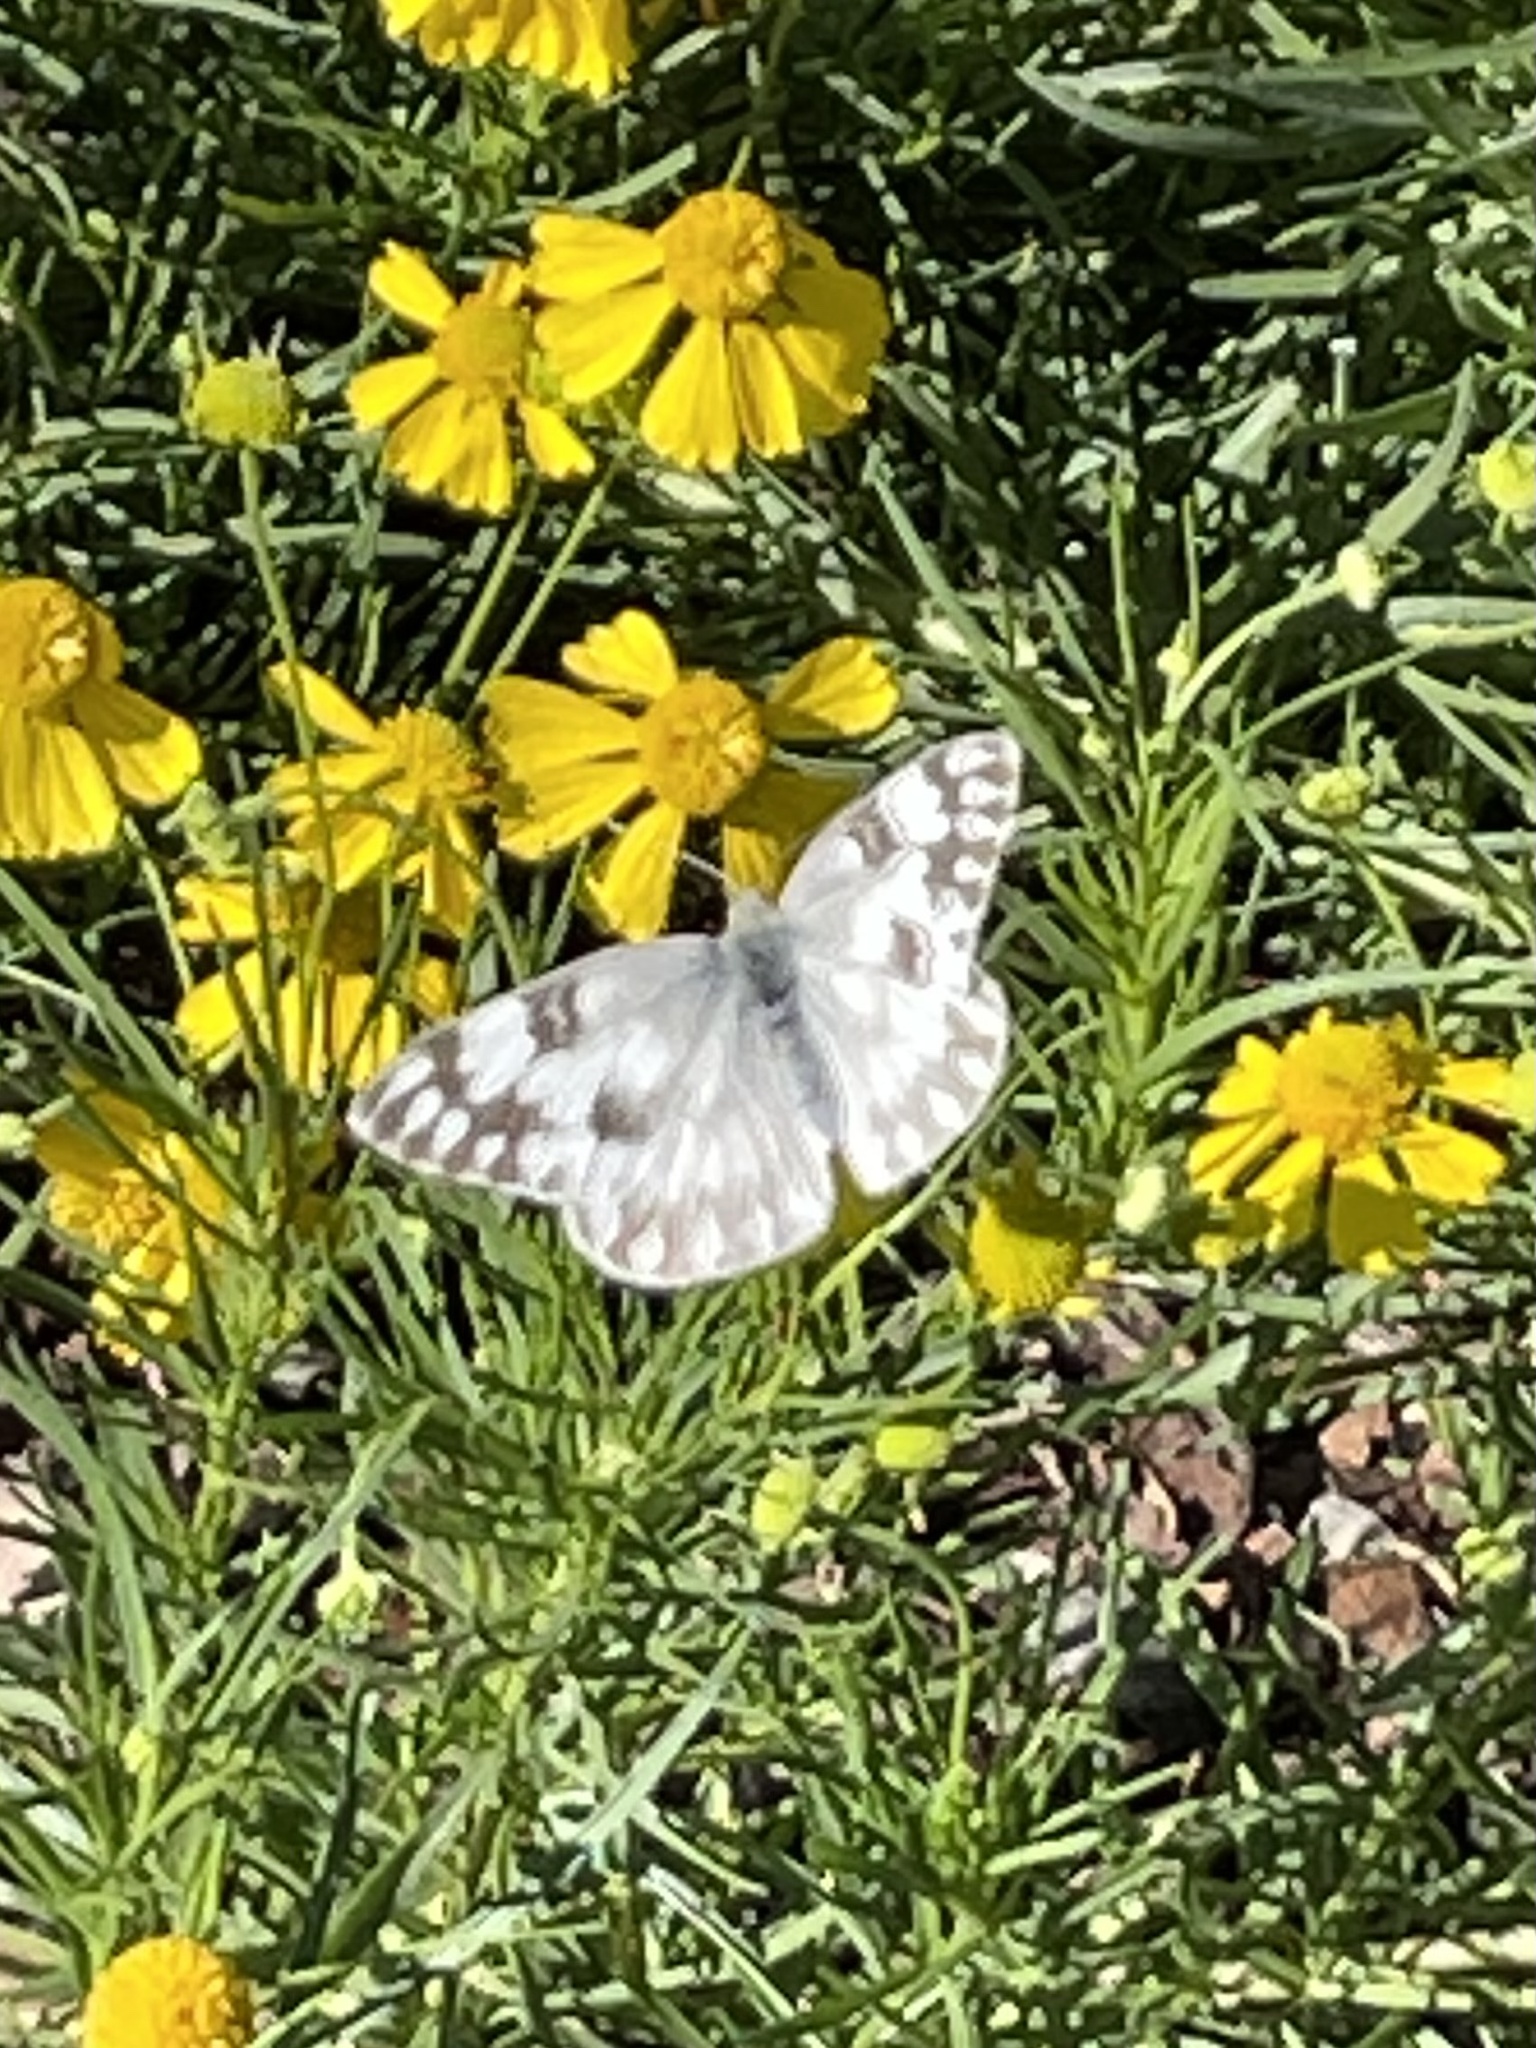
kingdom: Animalia
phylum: Arthropoda
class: Insecta
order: Lepidoptera
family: Pieridae
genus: Pontia
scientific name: Pontia protodice
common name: Checkered white
